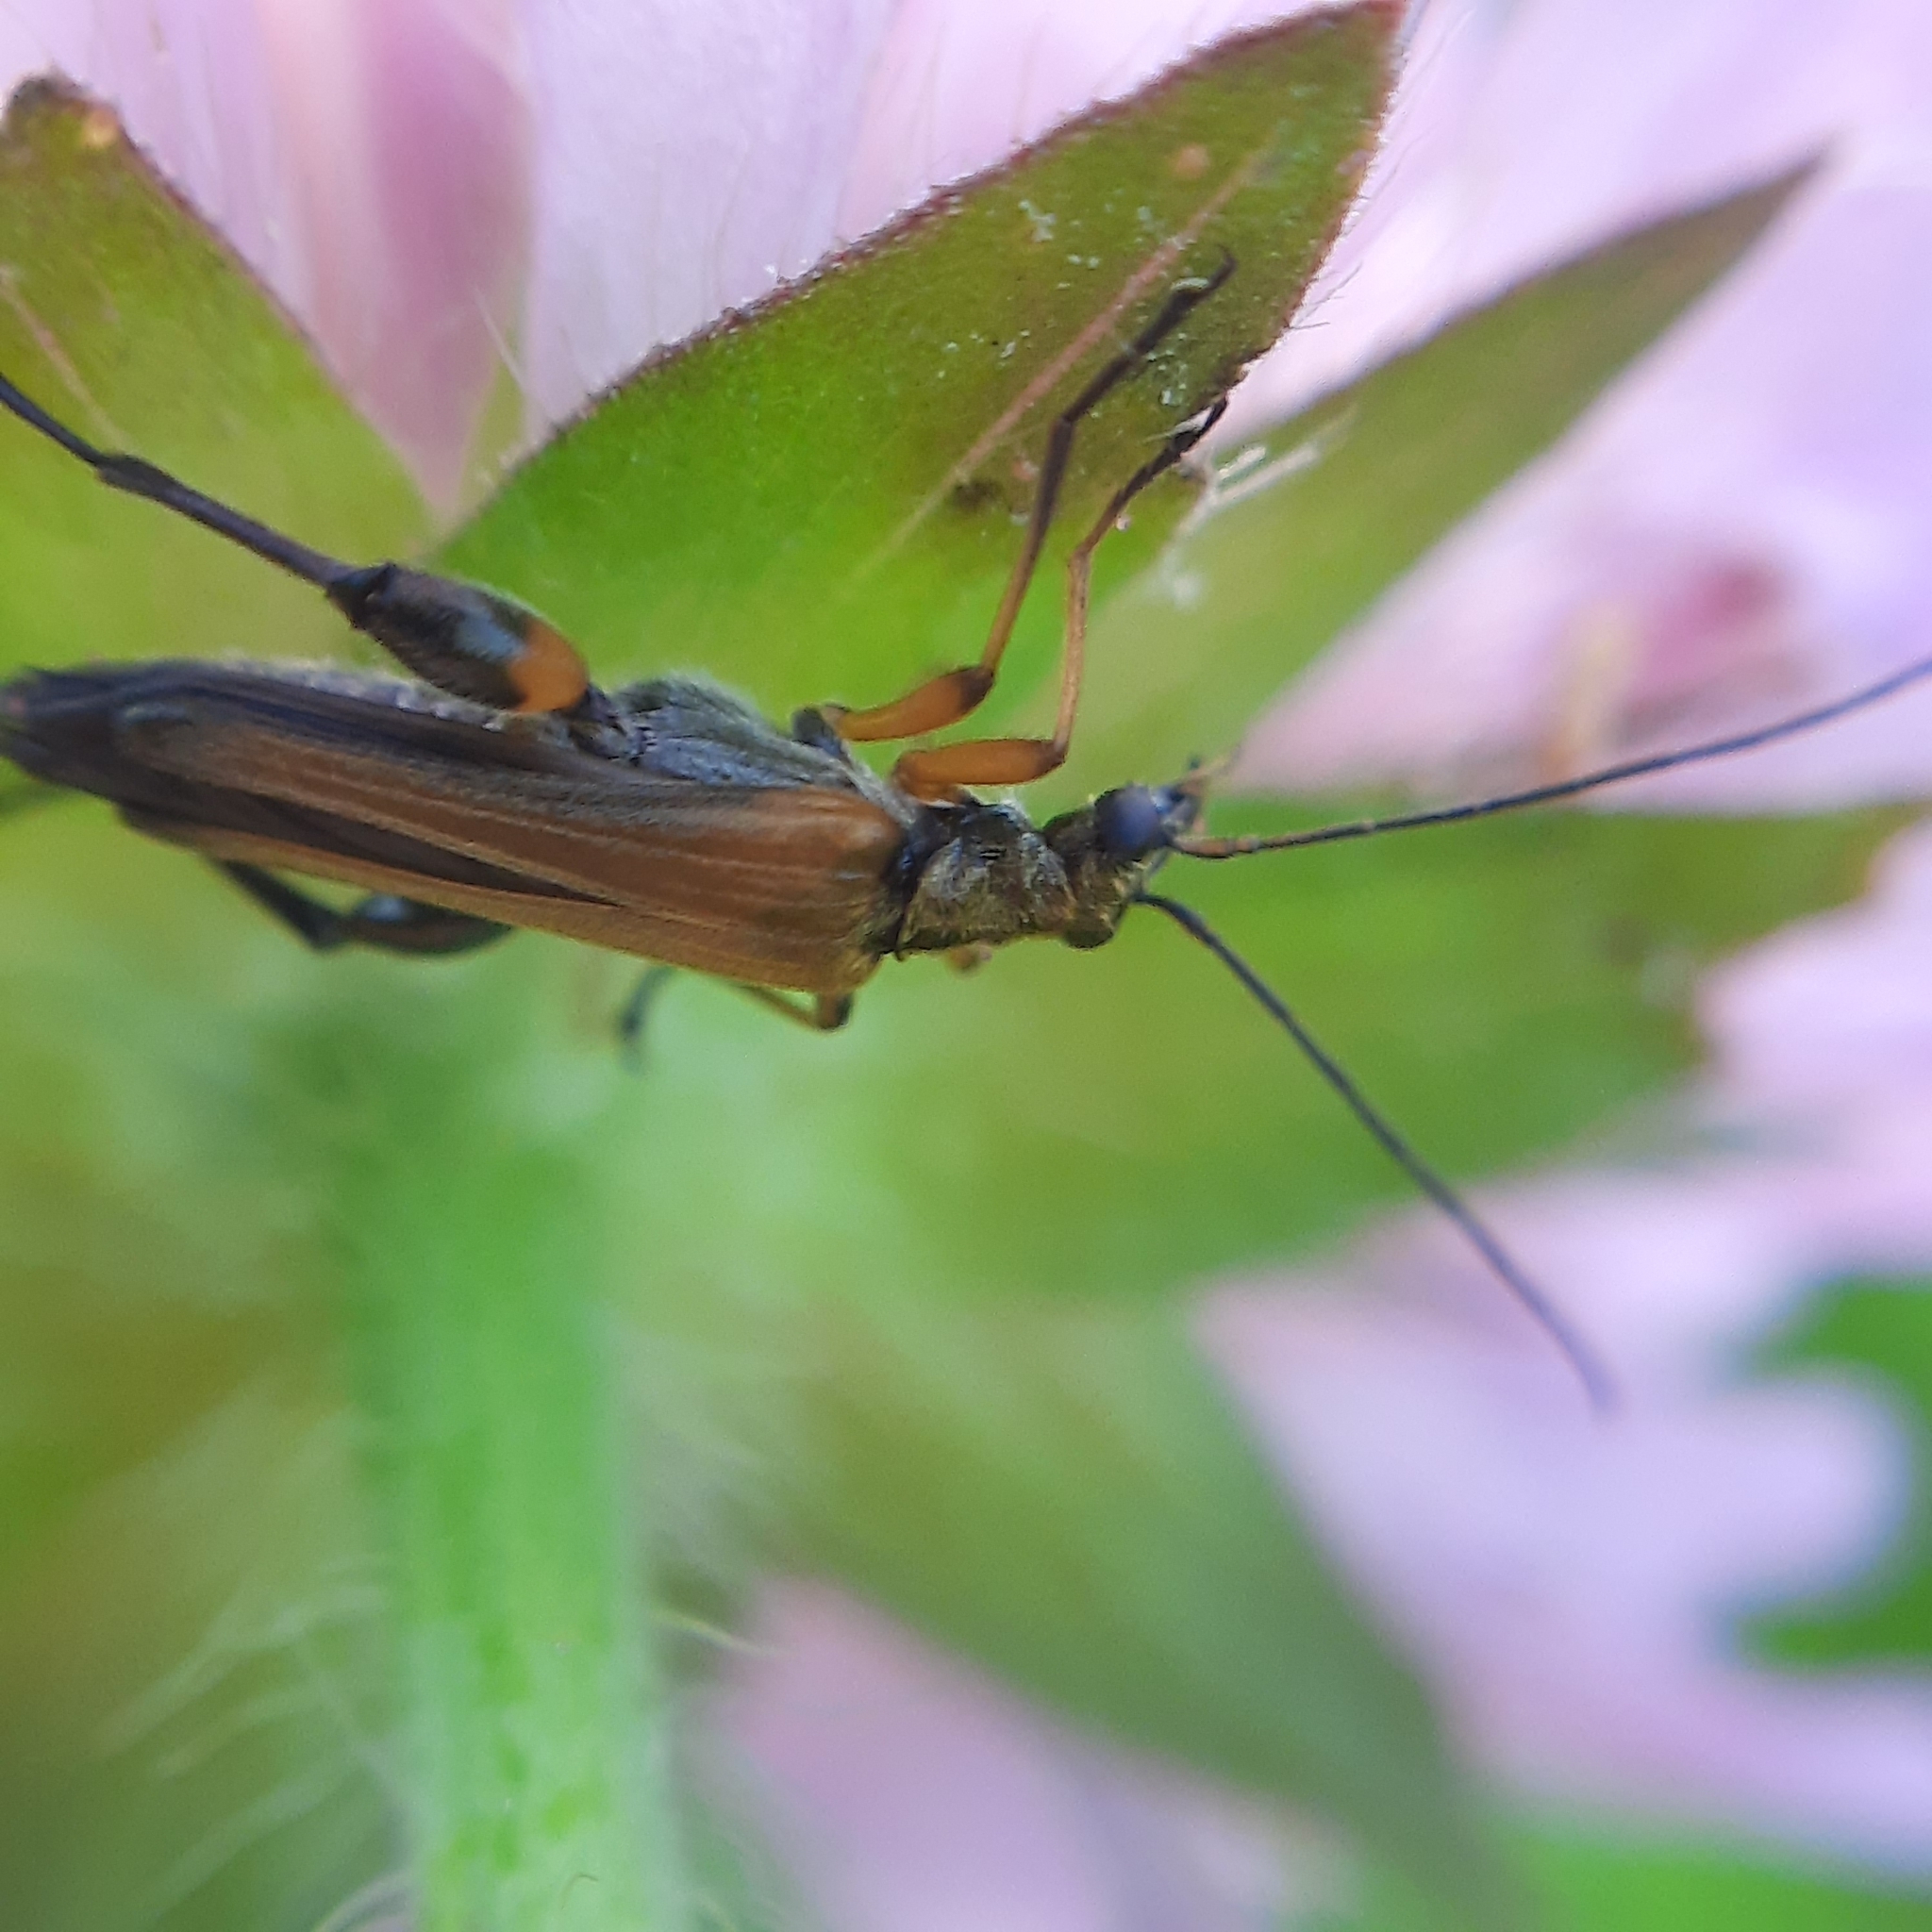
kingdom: Animalia
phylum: Arthropoda
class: Insecta
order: Coleoptera
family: Oedemeridae
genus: Oedemera
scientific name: Oedemera podagrariae
